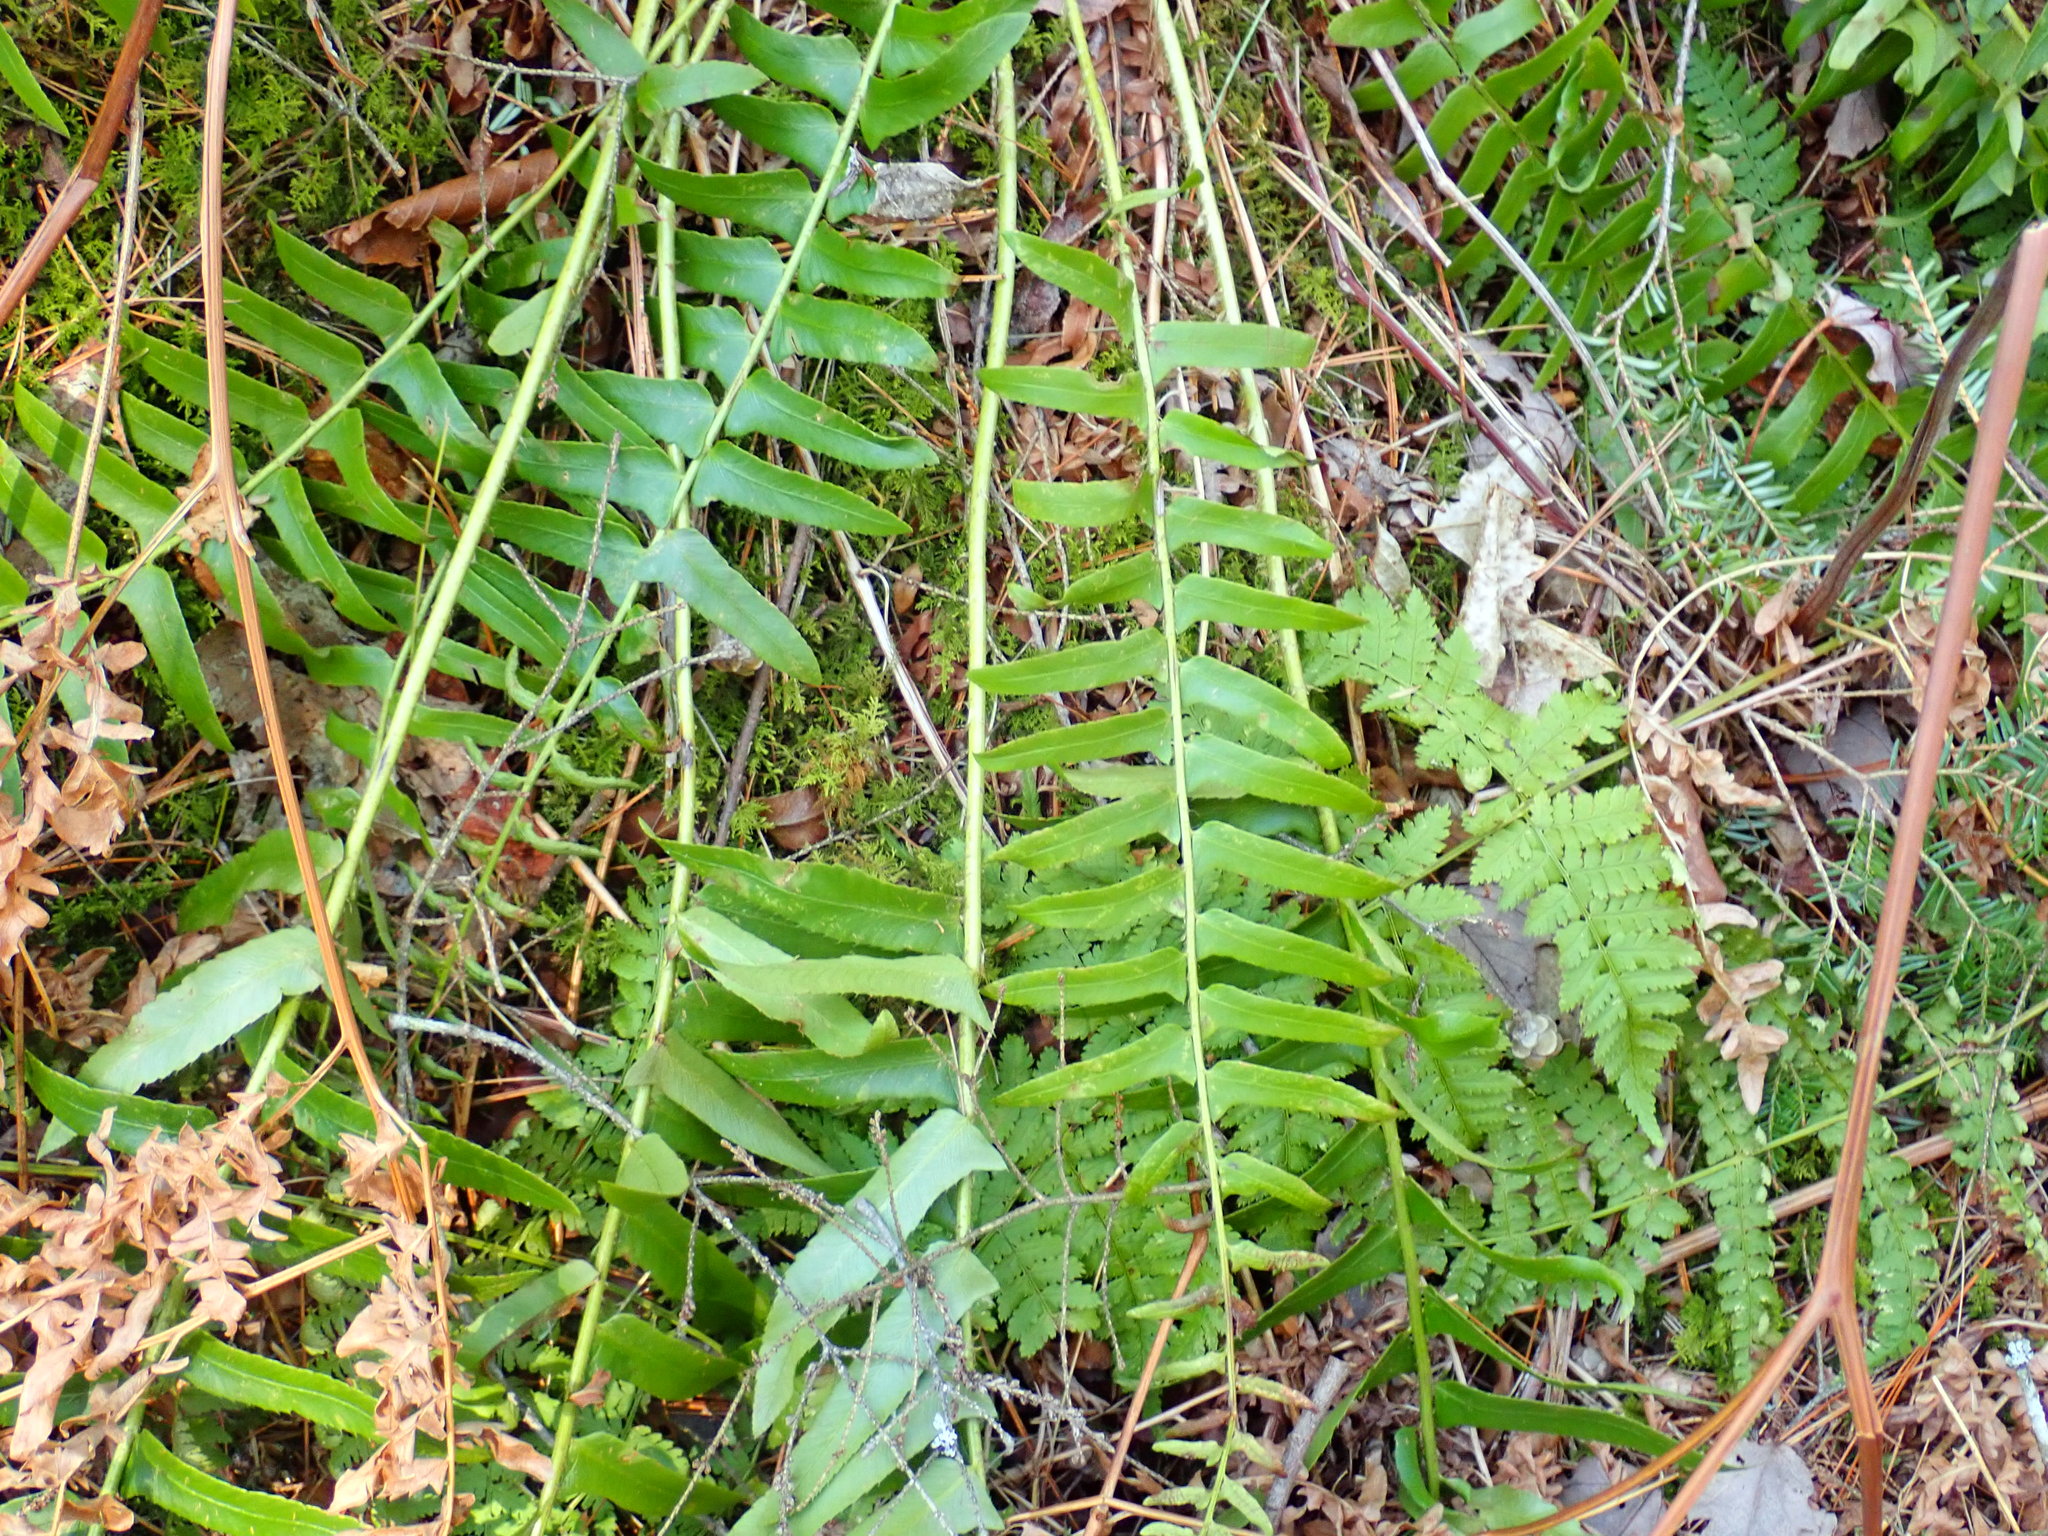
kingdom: Plantae
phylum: Tracheophyta
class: Polypodiopsida
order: Polypodiales
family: Dryopteridaceae
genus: Polystichum
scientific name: Polystichum acrostichoides
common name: Christmas fern
